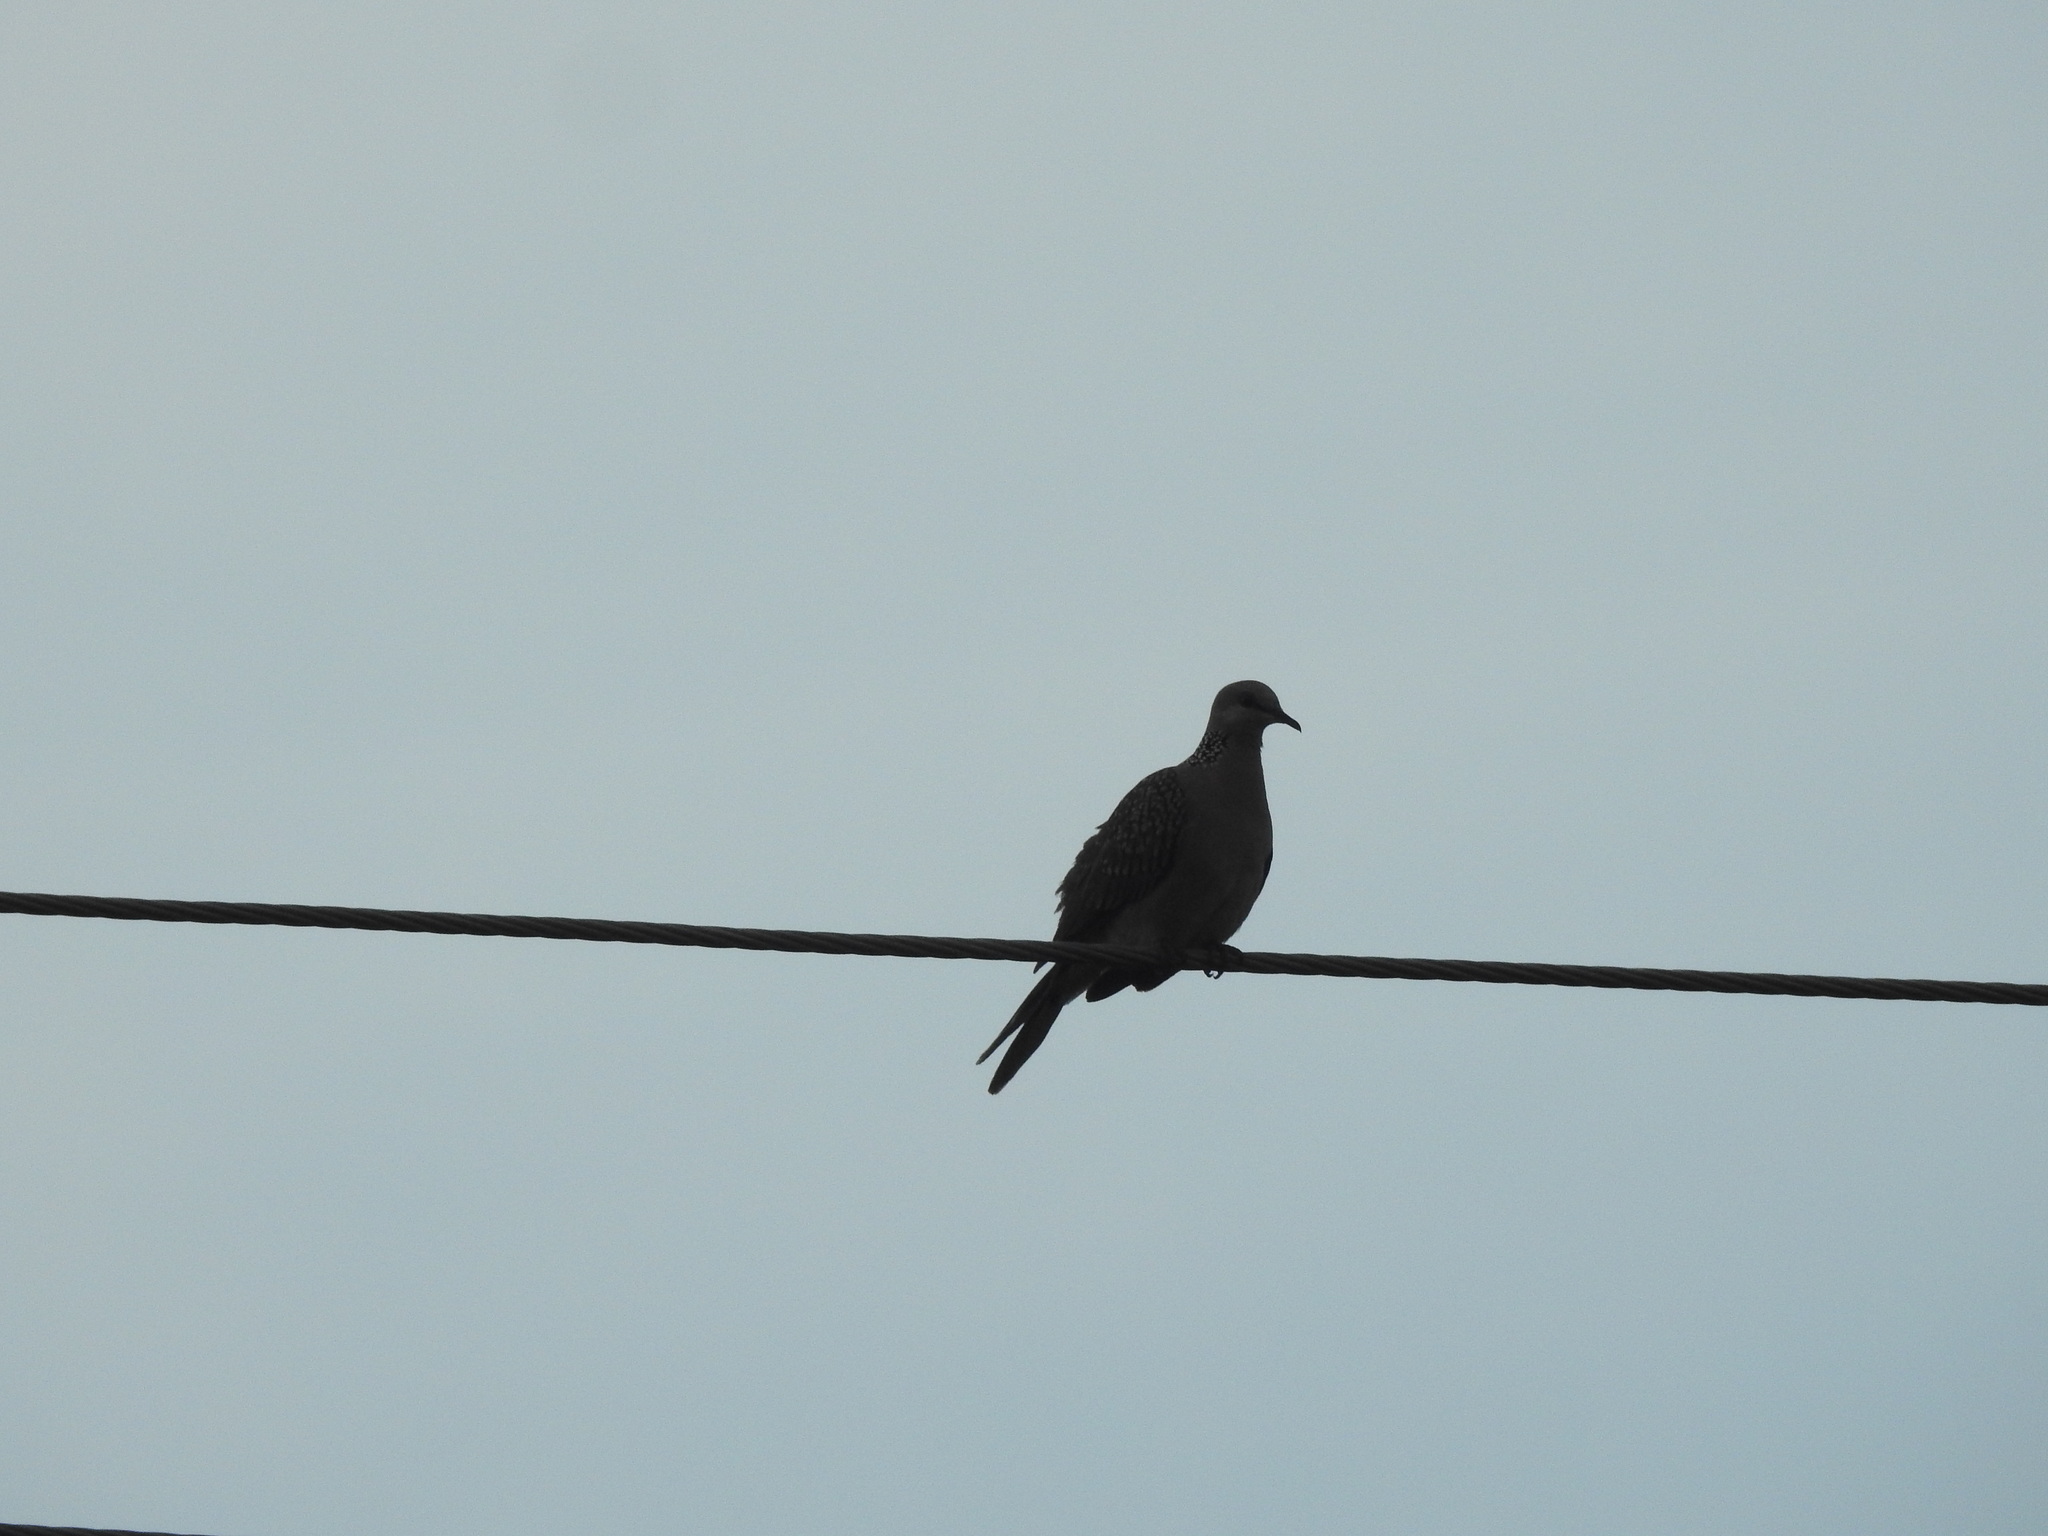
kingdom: Animalia
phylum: Chordata
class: Aves
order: Columbiformes
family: Columbidae
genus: Spilopelia
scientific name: Spilopelia chinensis
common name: Spotted dove
